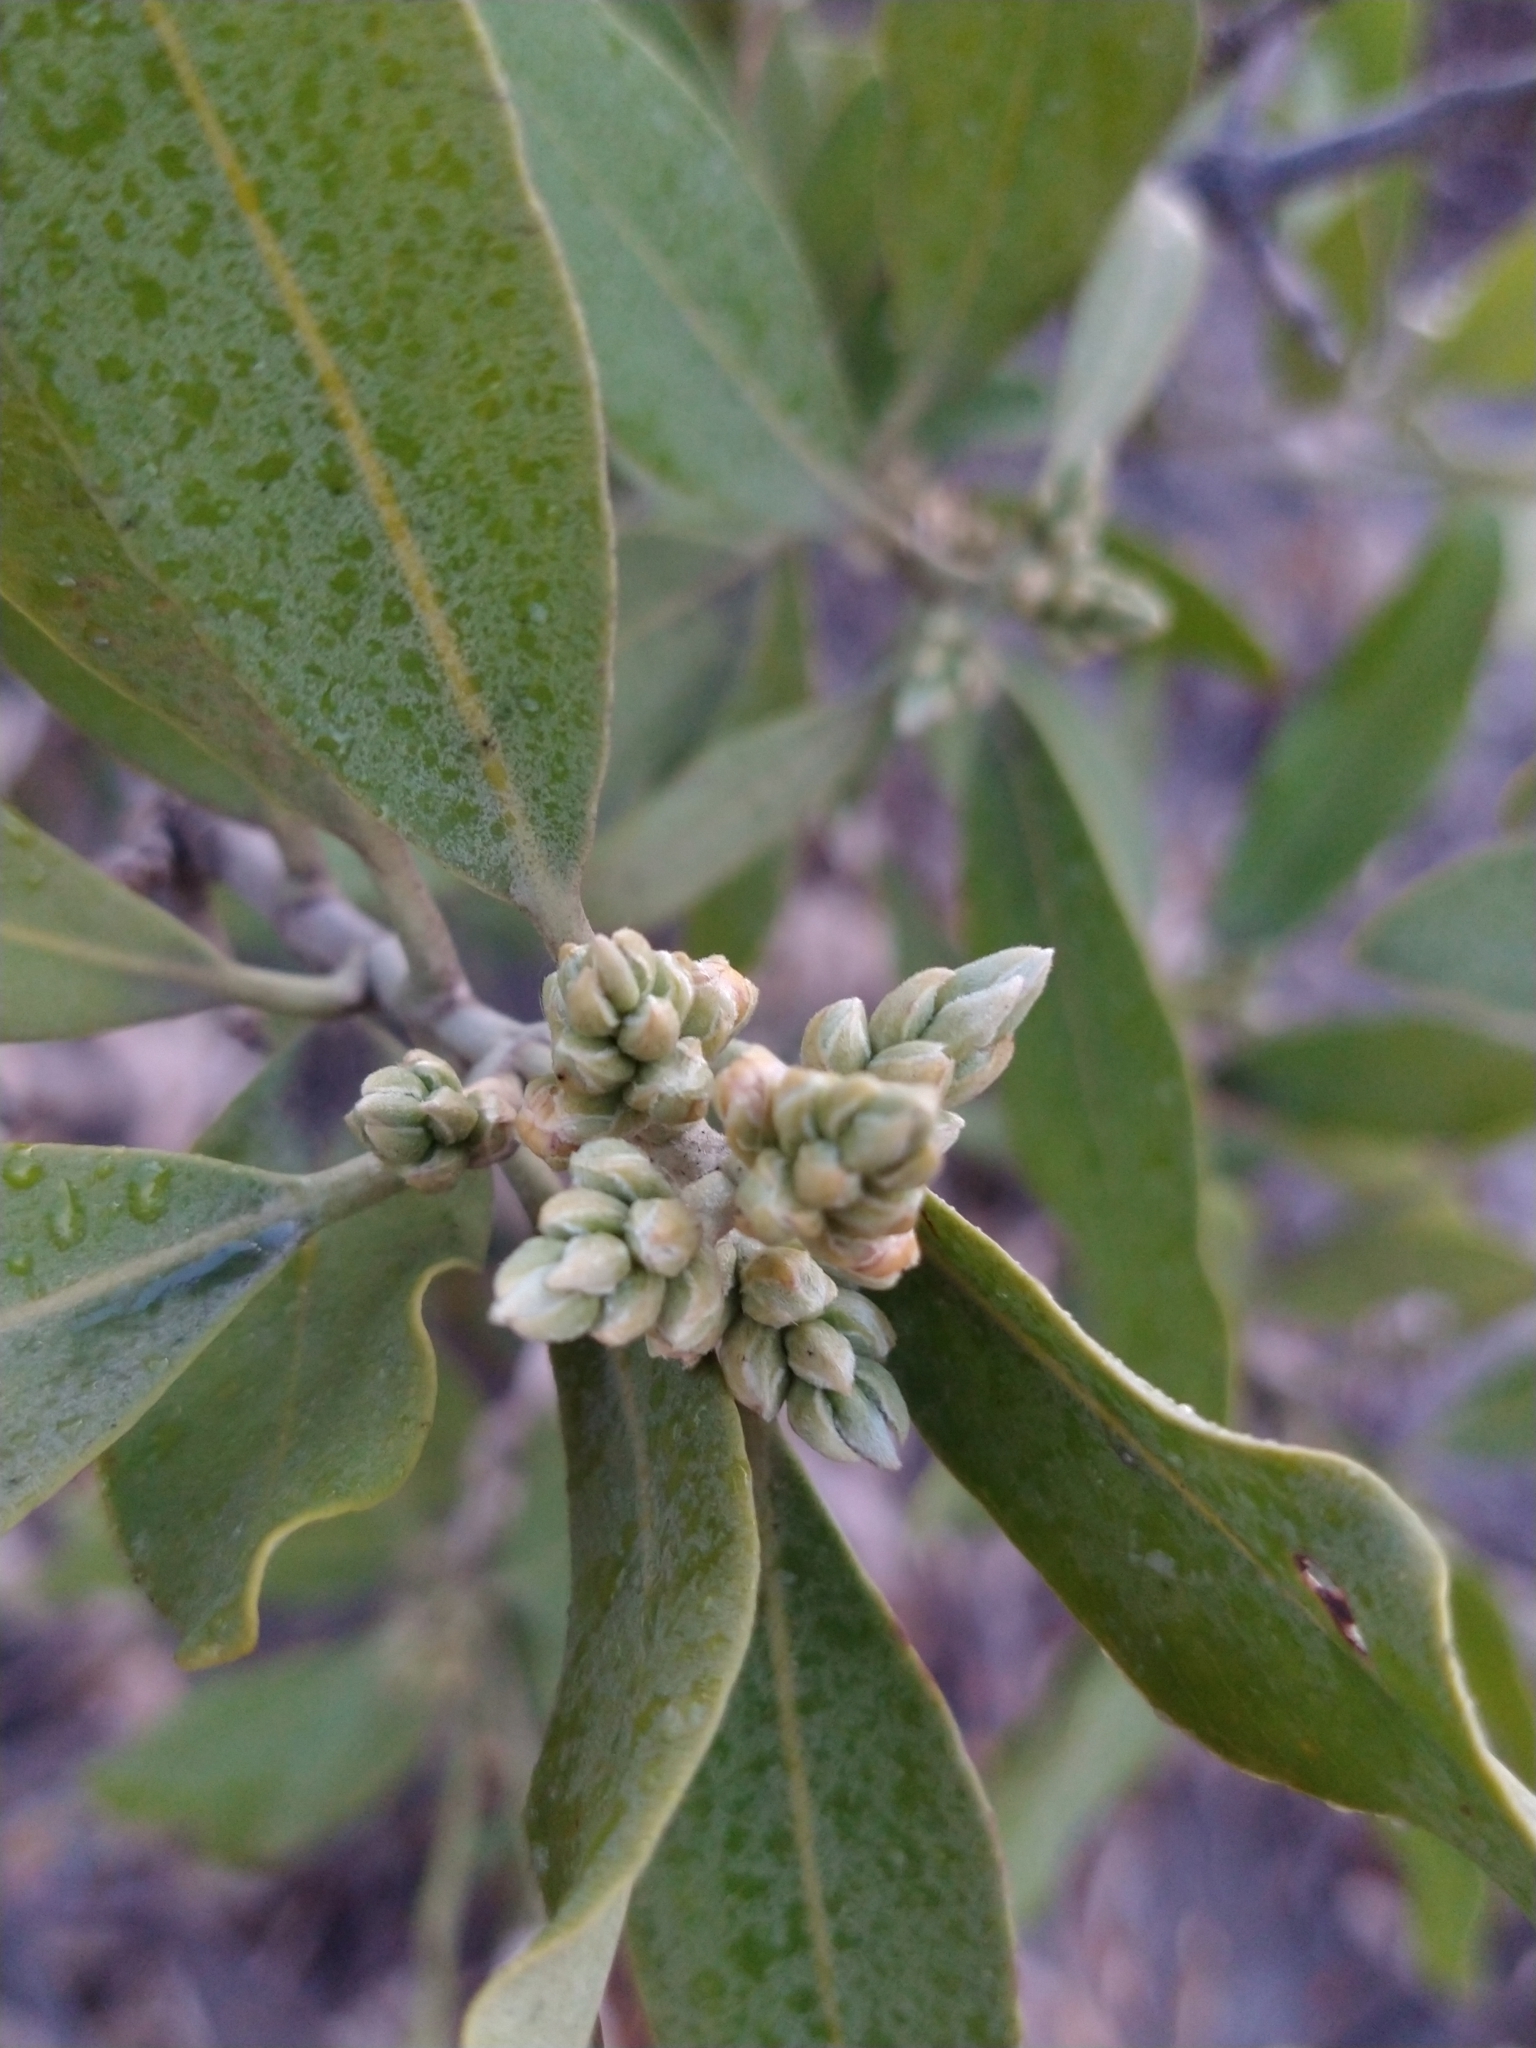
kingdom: Plantae
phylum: Tracheophyta
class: Magnoliopsida
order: Lamiales
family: Acanthaceae
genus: Avicennia
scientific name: Avicennia germinans
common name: Black mangrove
